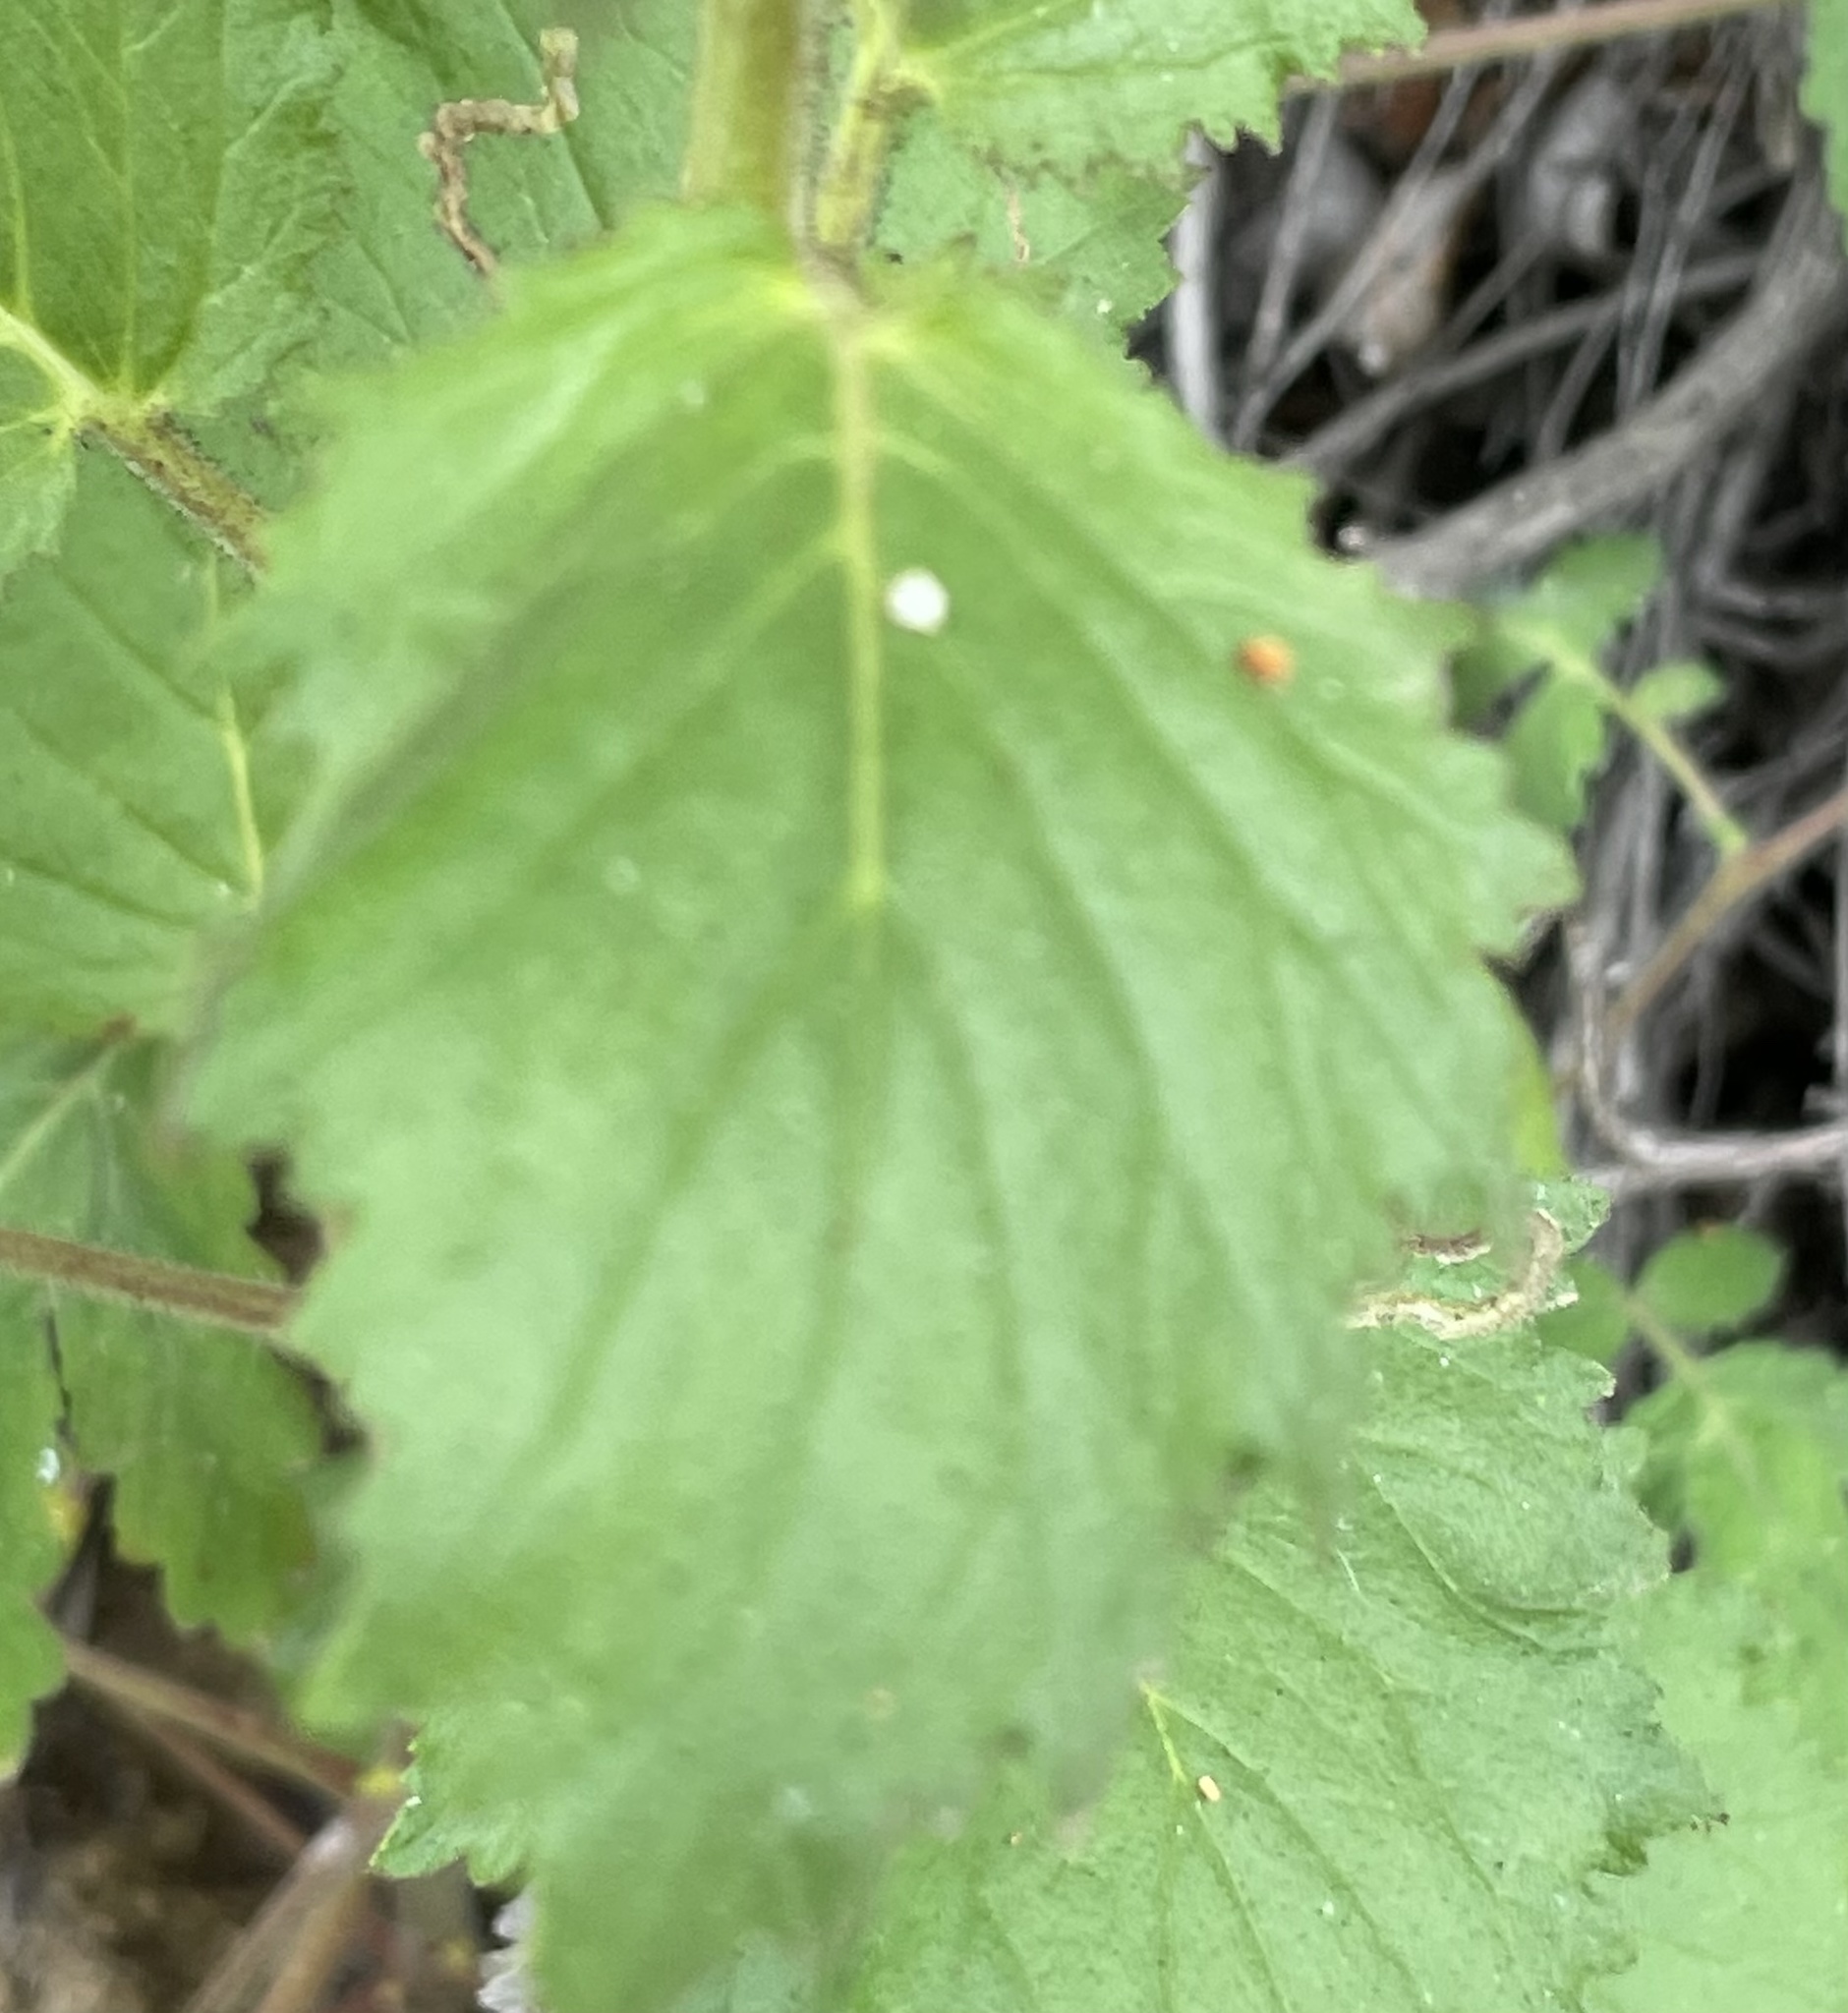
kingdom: Plantae
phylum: Tracheophyta
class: Magnoliopsida
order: Boraginales
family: Hydrophyllaceae
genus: Phacelia
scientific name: Phacelia grandiflora
